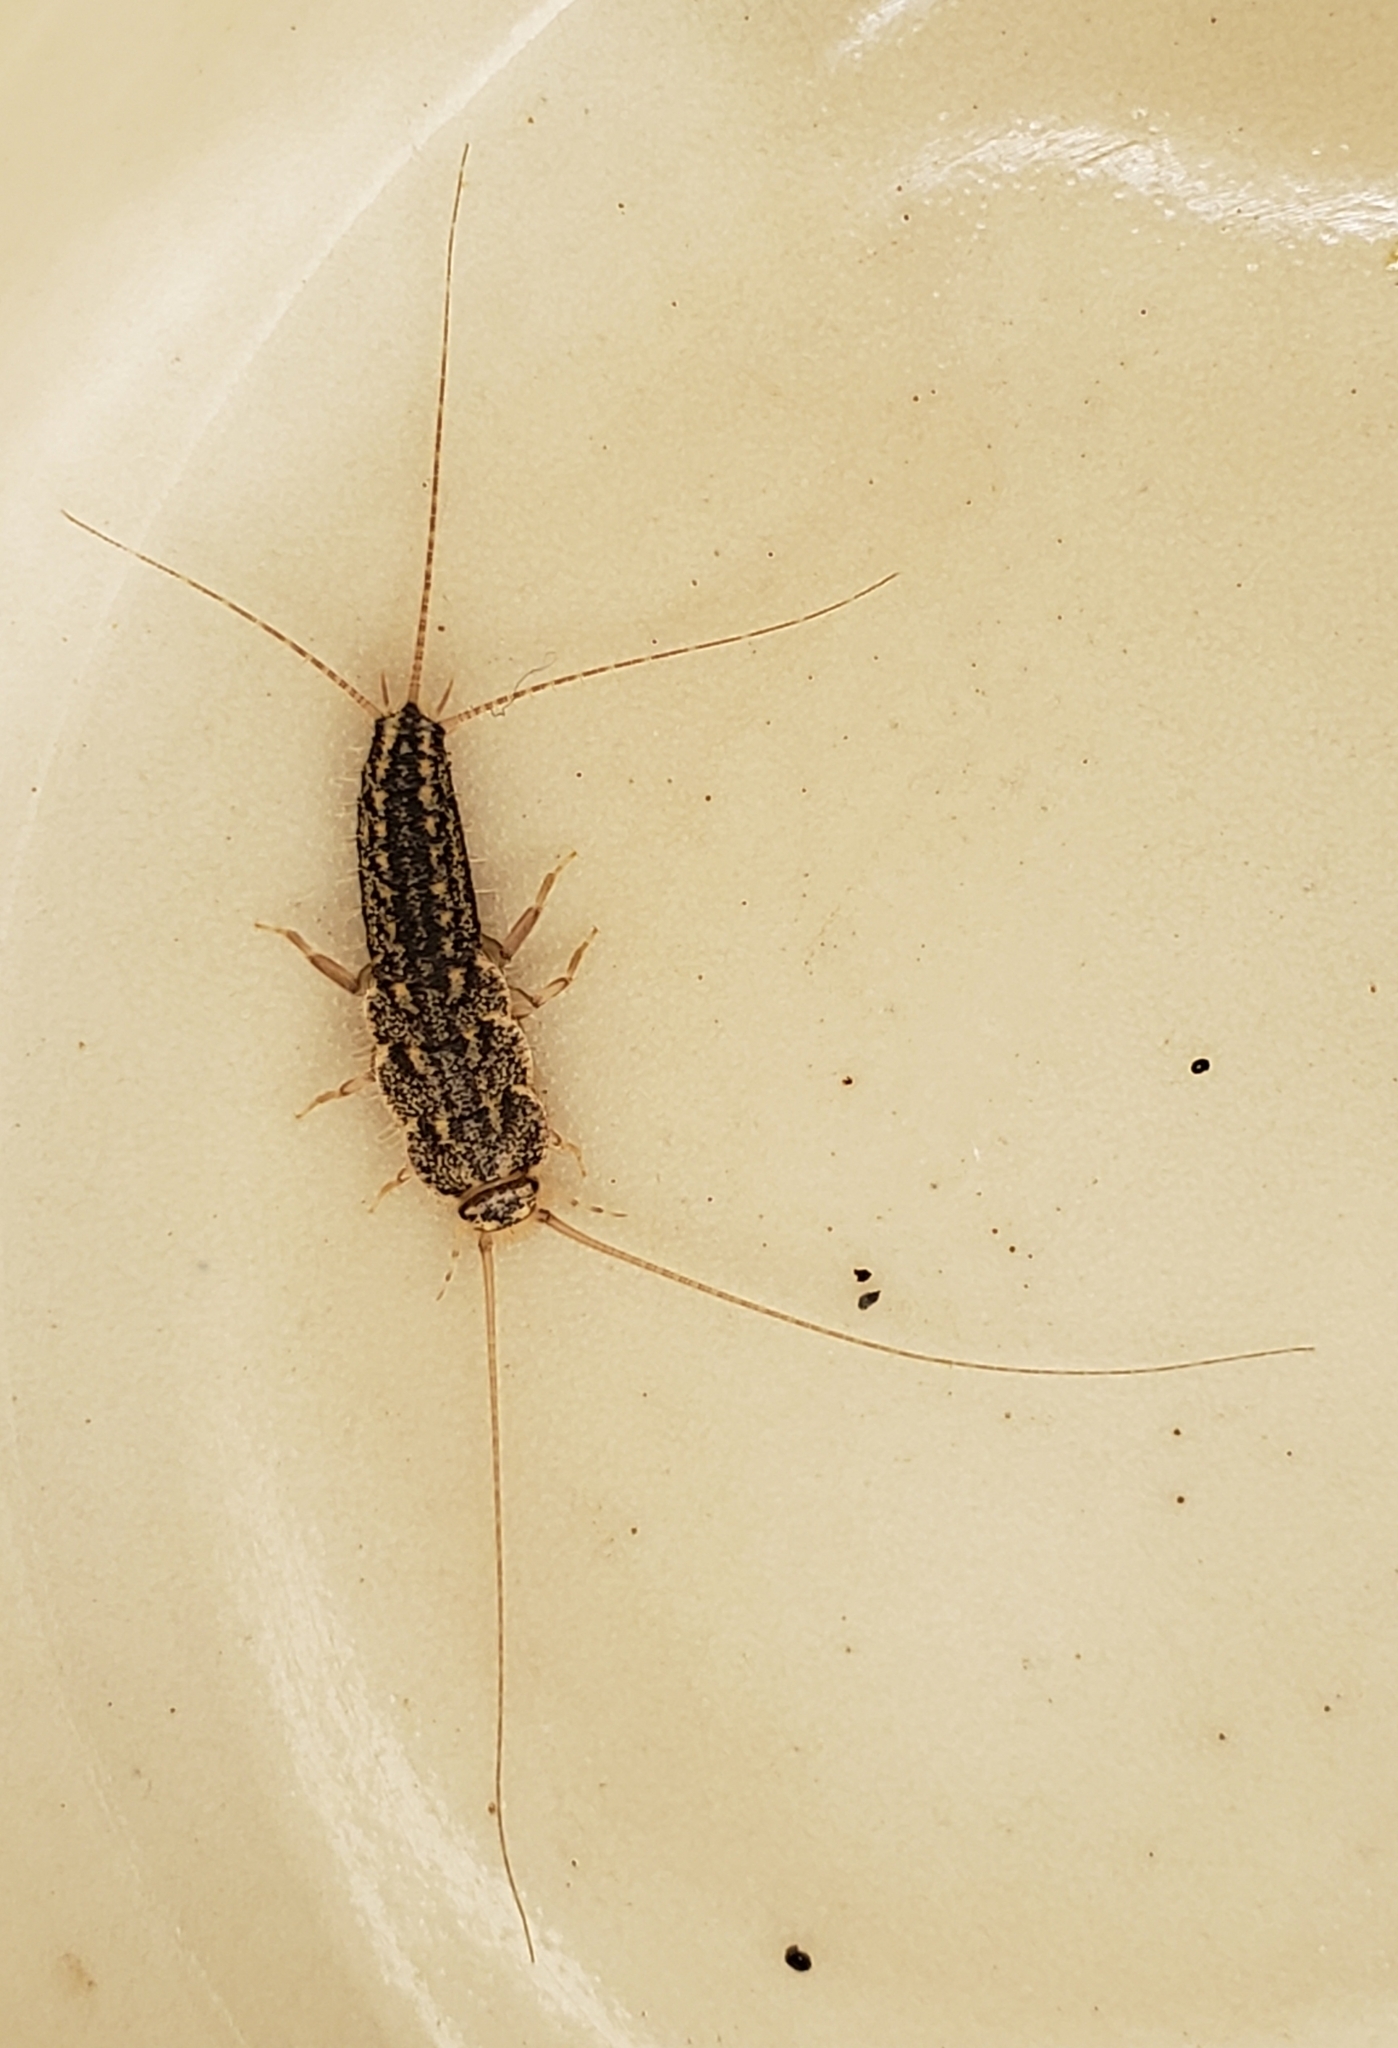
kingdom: Animalia
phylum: Arthropoda
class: Insecta
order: Zygentoma
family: Lepismatidae
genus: Ctenolepisma
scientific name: Ctenolepisma lineata
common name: Four-lined silverfish
